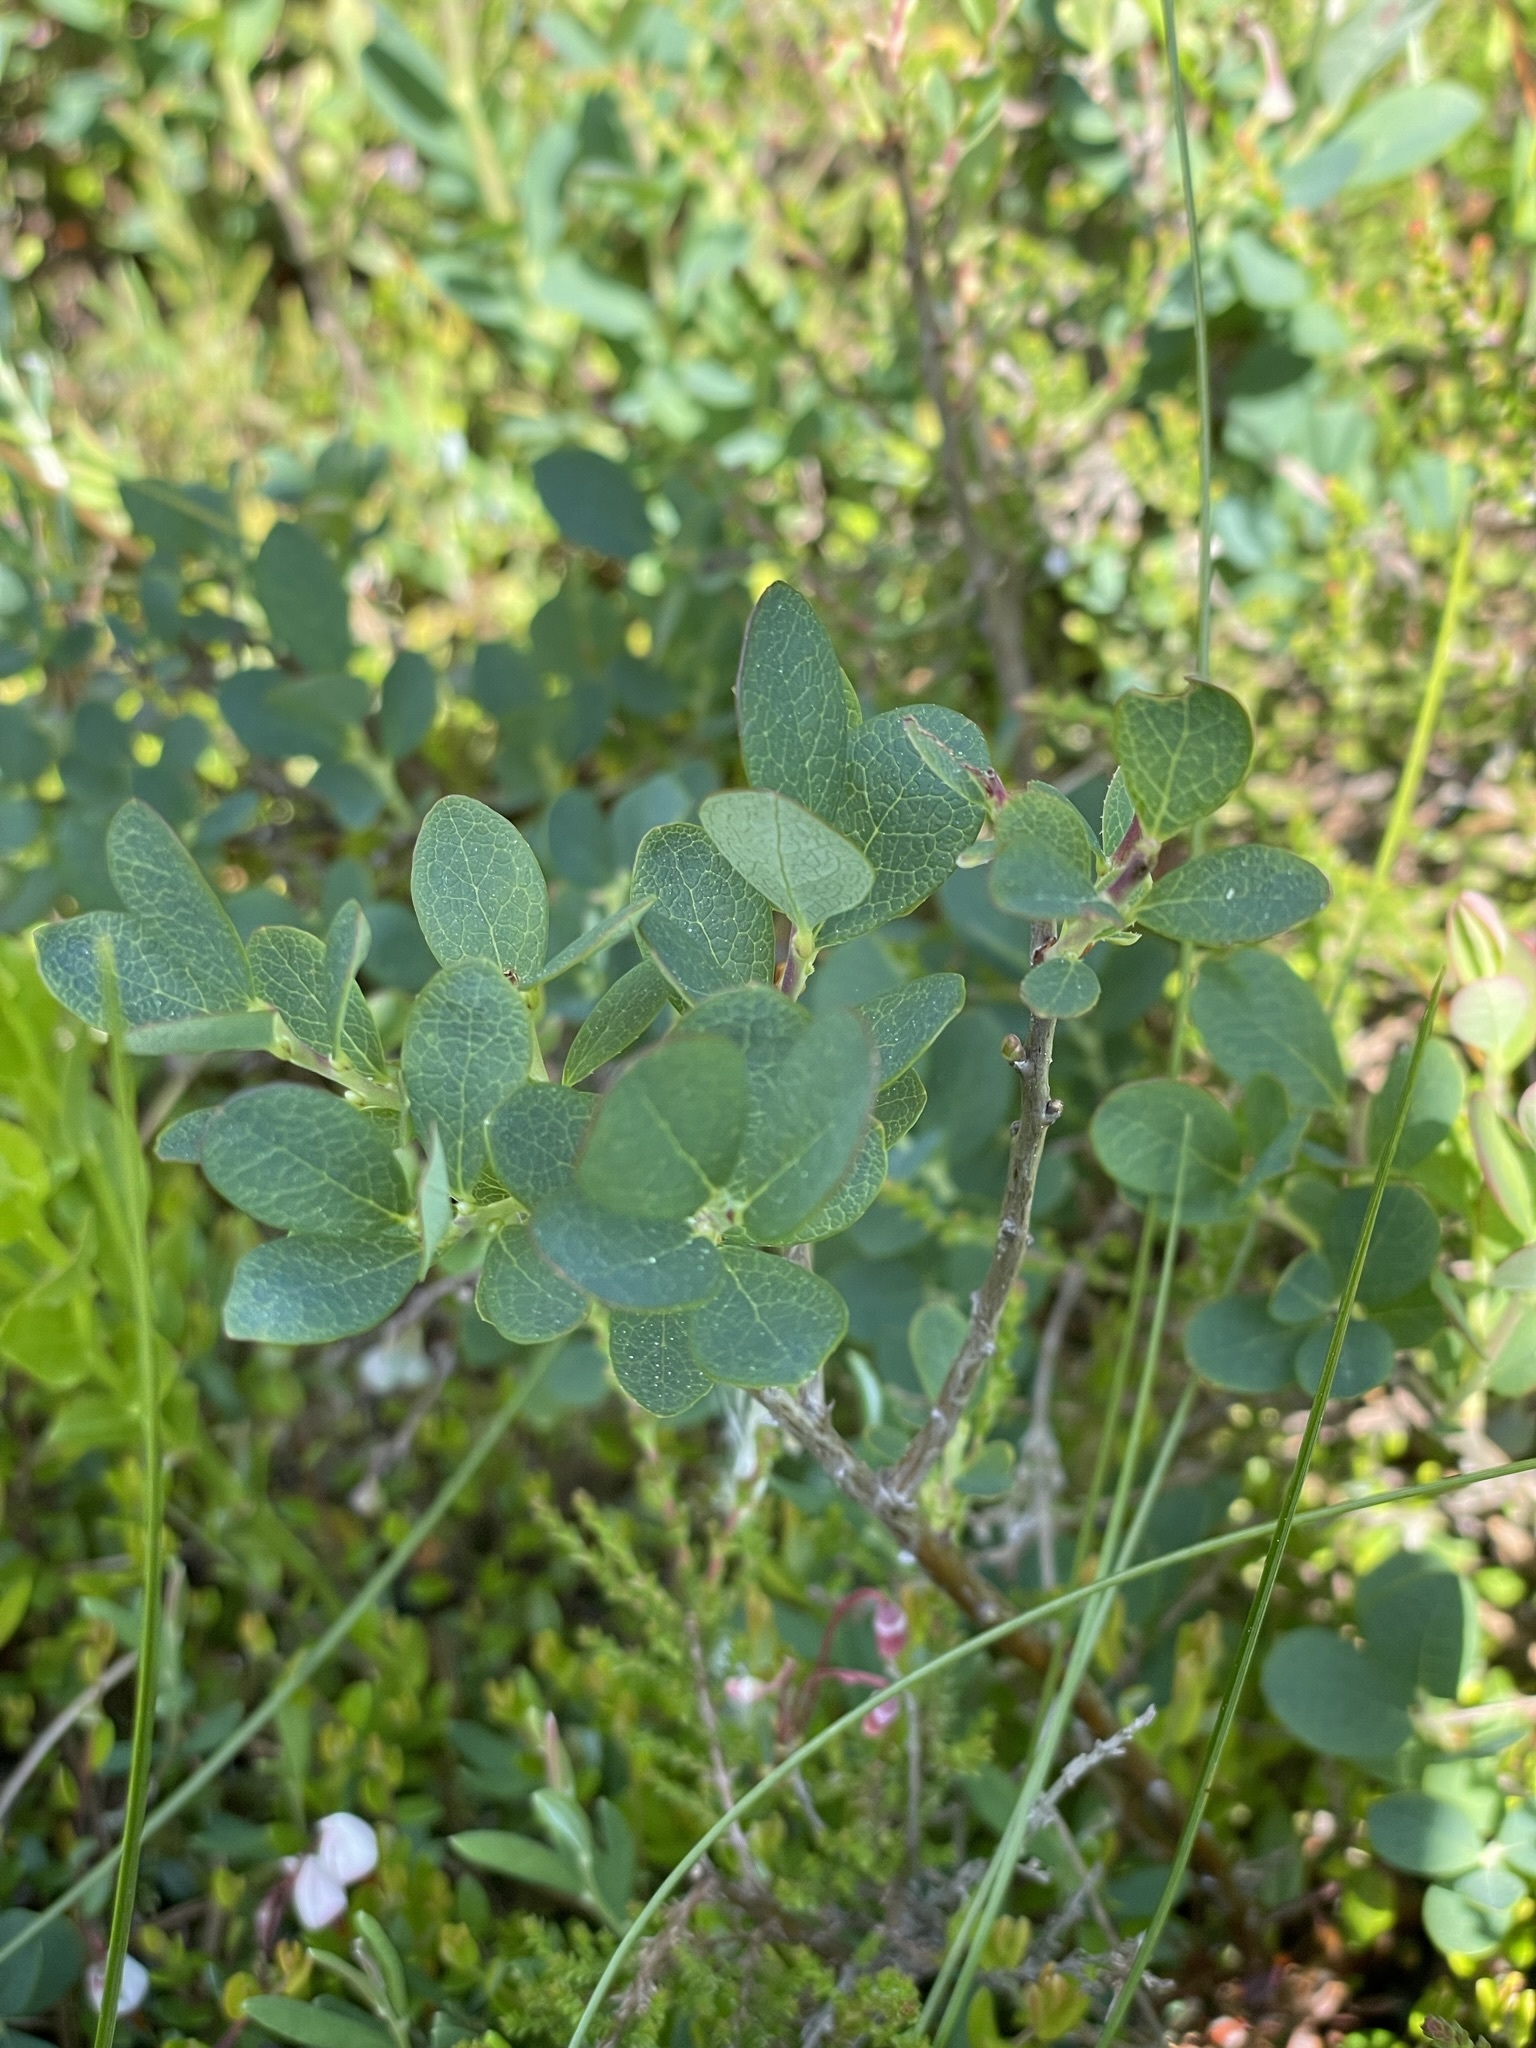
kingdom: Plantae
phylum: Tracheophyta
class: Magnoliopsida
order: Ericales
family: Ericaceae
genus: Vaccinium
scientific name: Vaccinium uliginosum
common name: Bog bilberry
